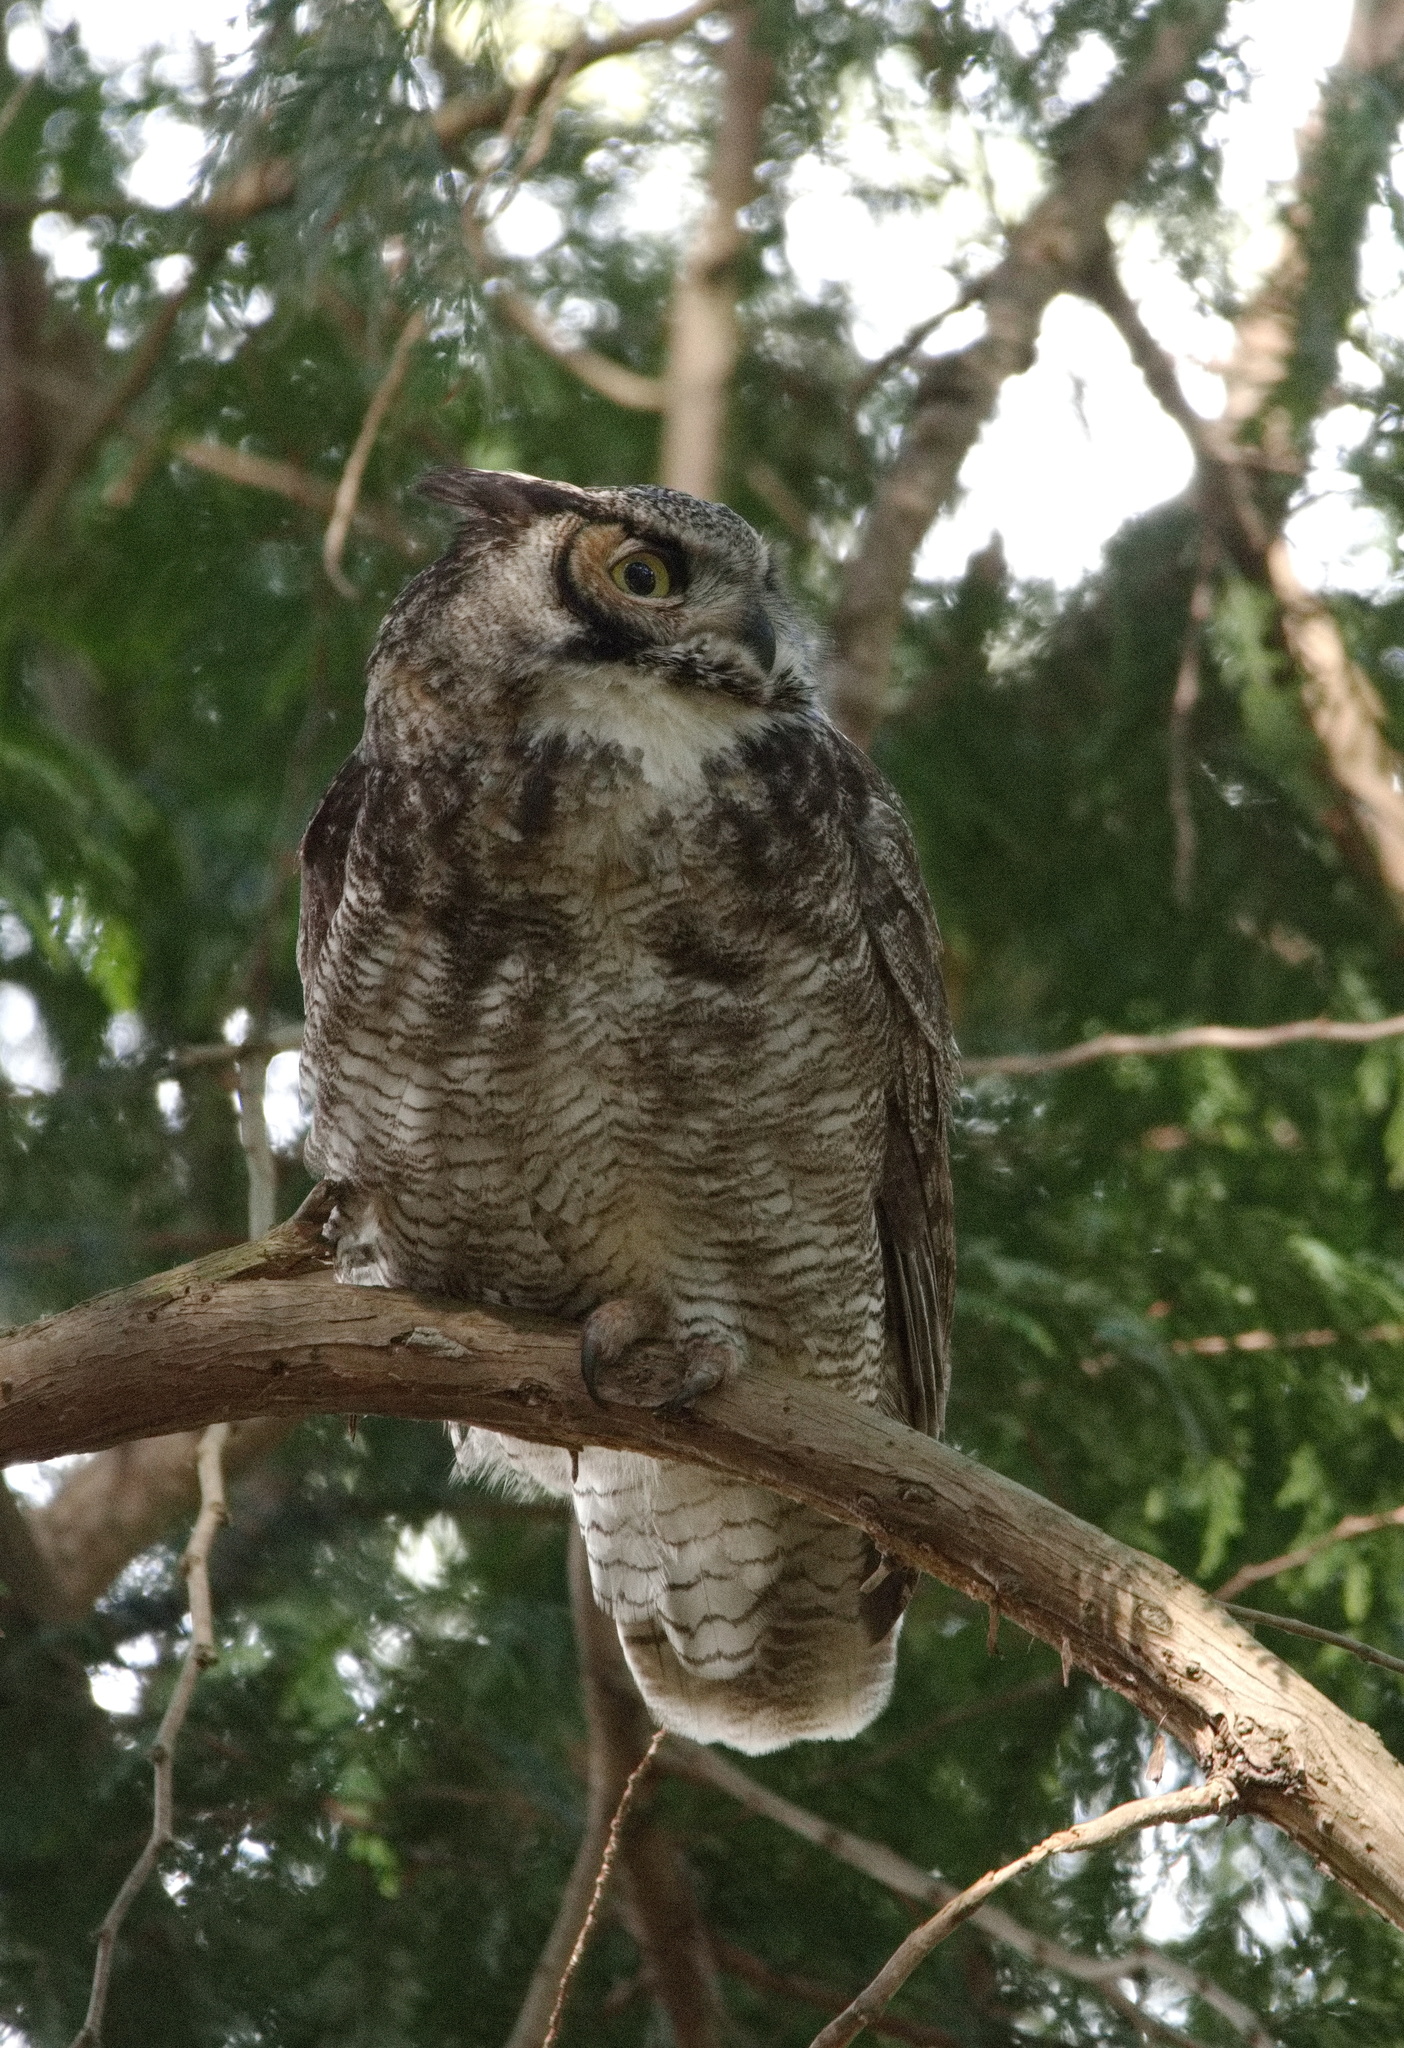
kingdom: Animalia
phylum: Chordata
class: Aves
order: Strigiformes
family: Strigidae
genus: Bubo
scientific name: Bubo virginianus
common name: Great horned owl
